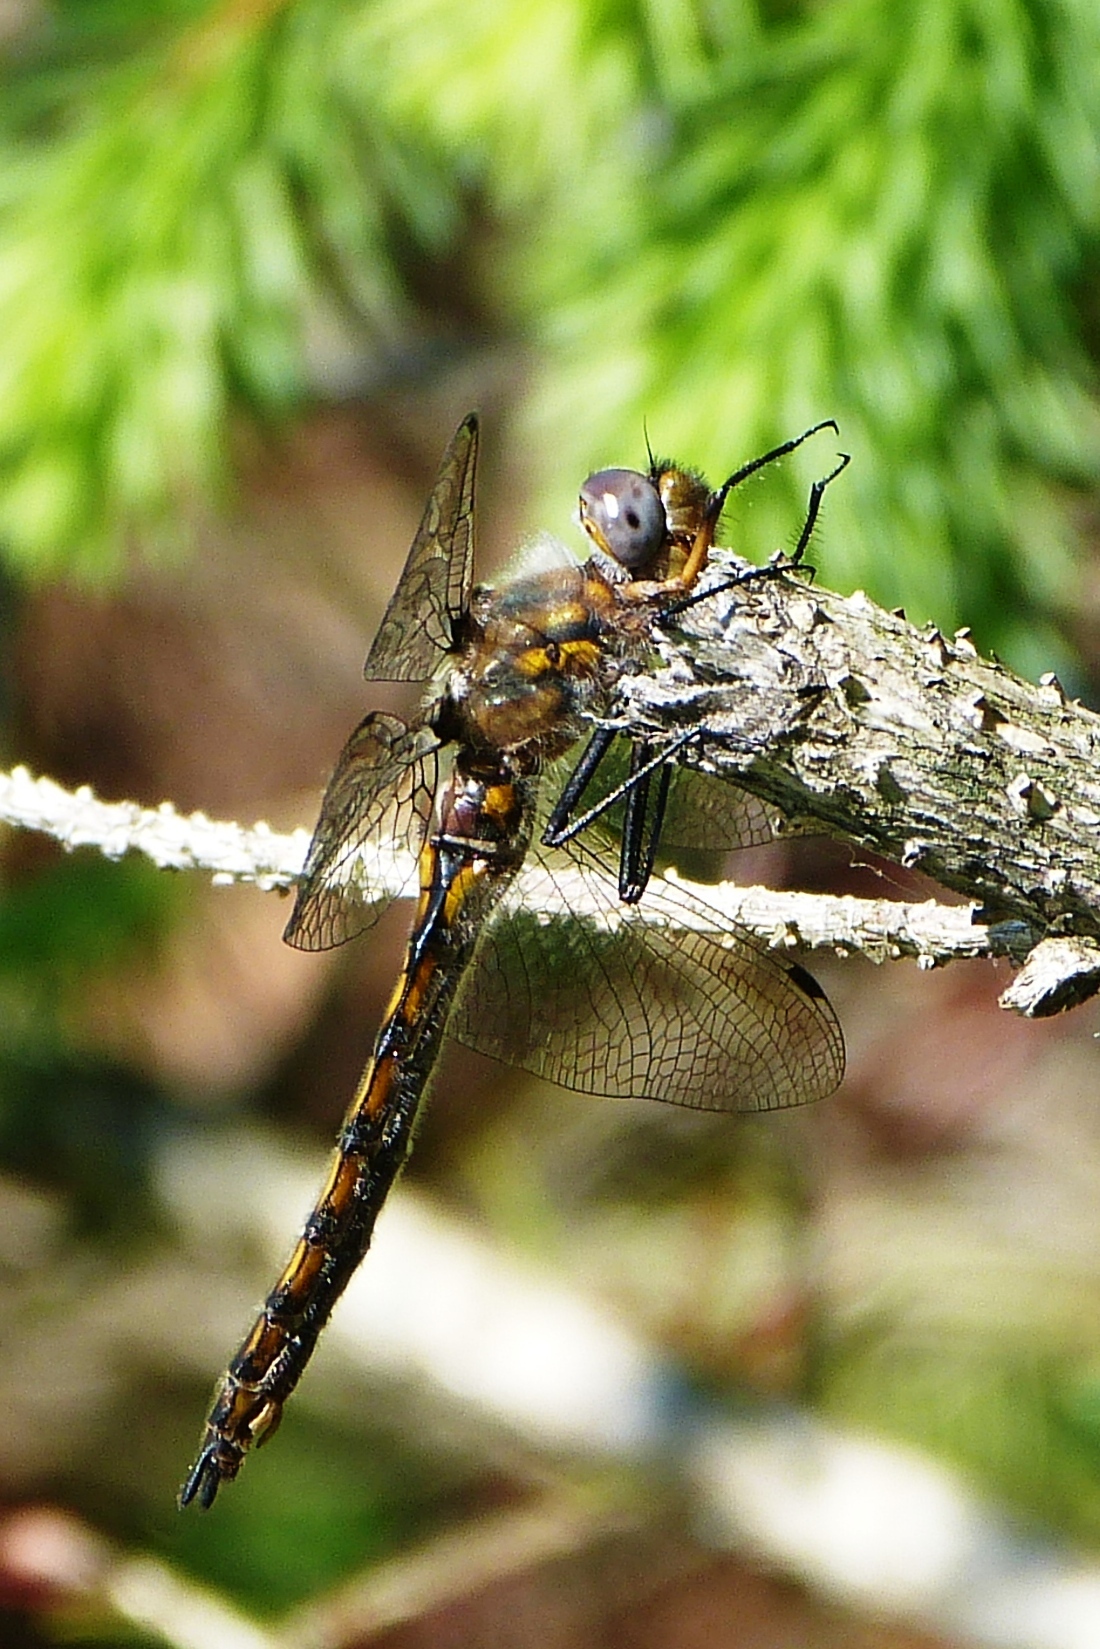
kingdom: Animalia
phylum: Arthropoda
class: Insecta
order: Odonata
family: Corduliidae
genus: Epitheca
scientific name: Epitheca canis
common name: Beaverpond baskettail
